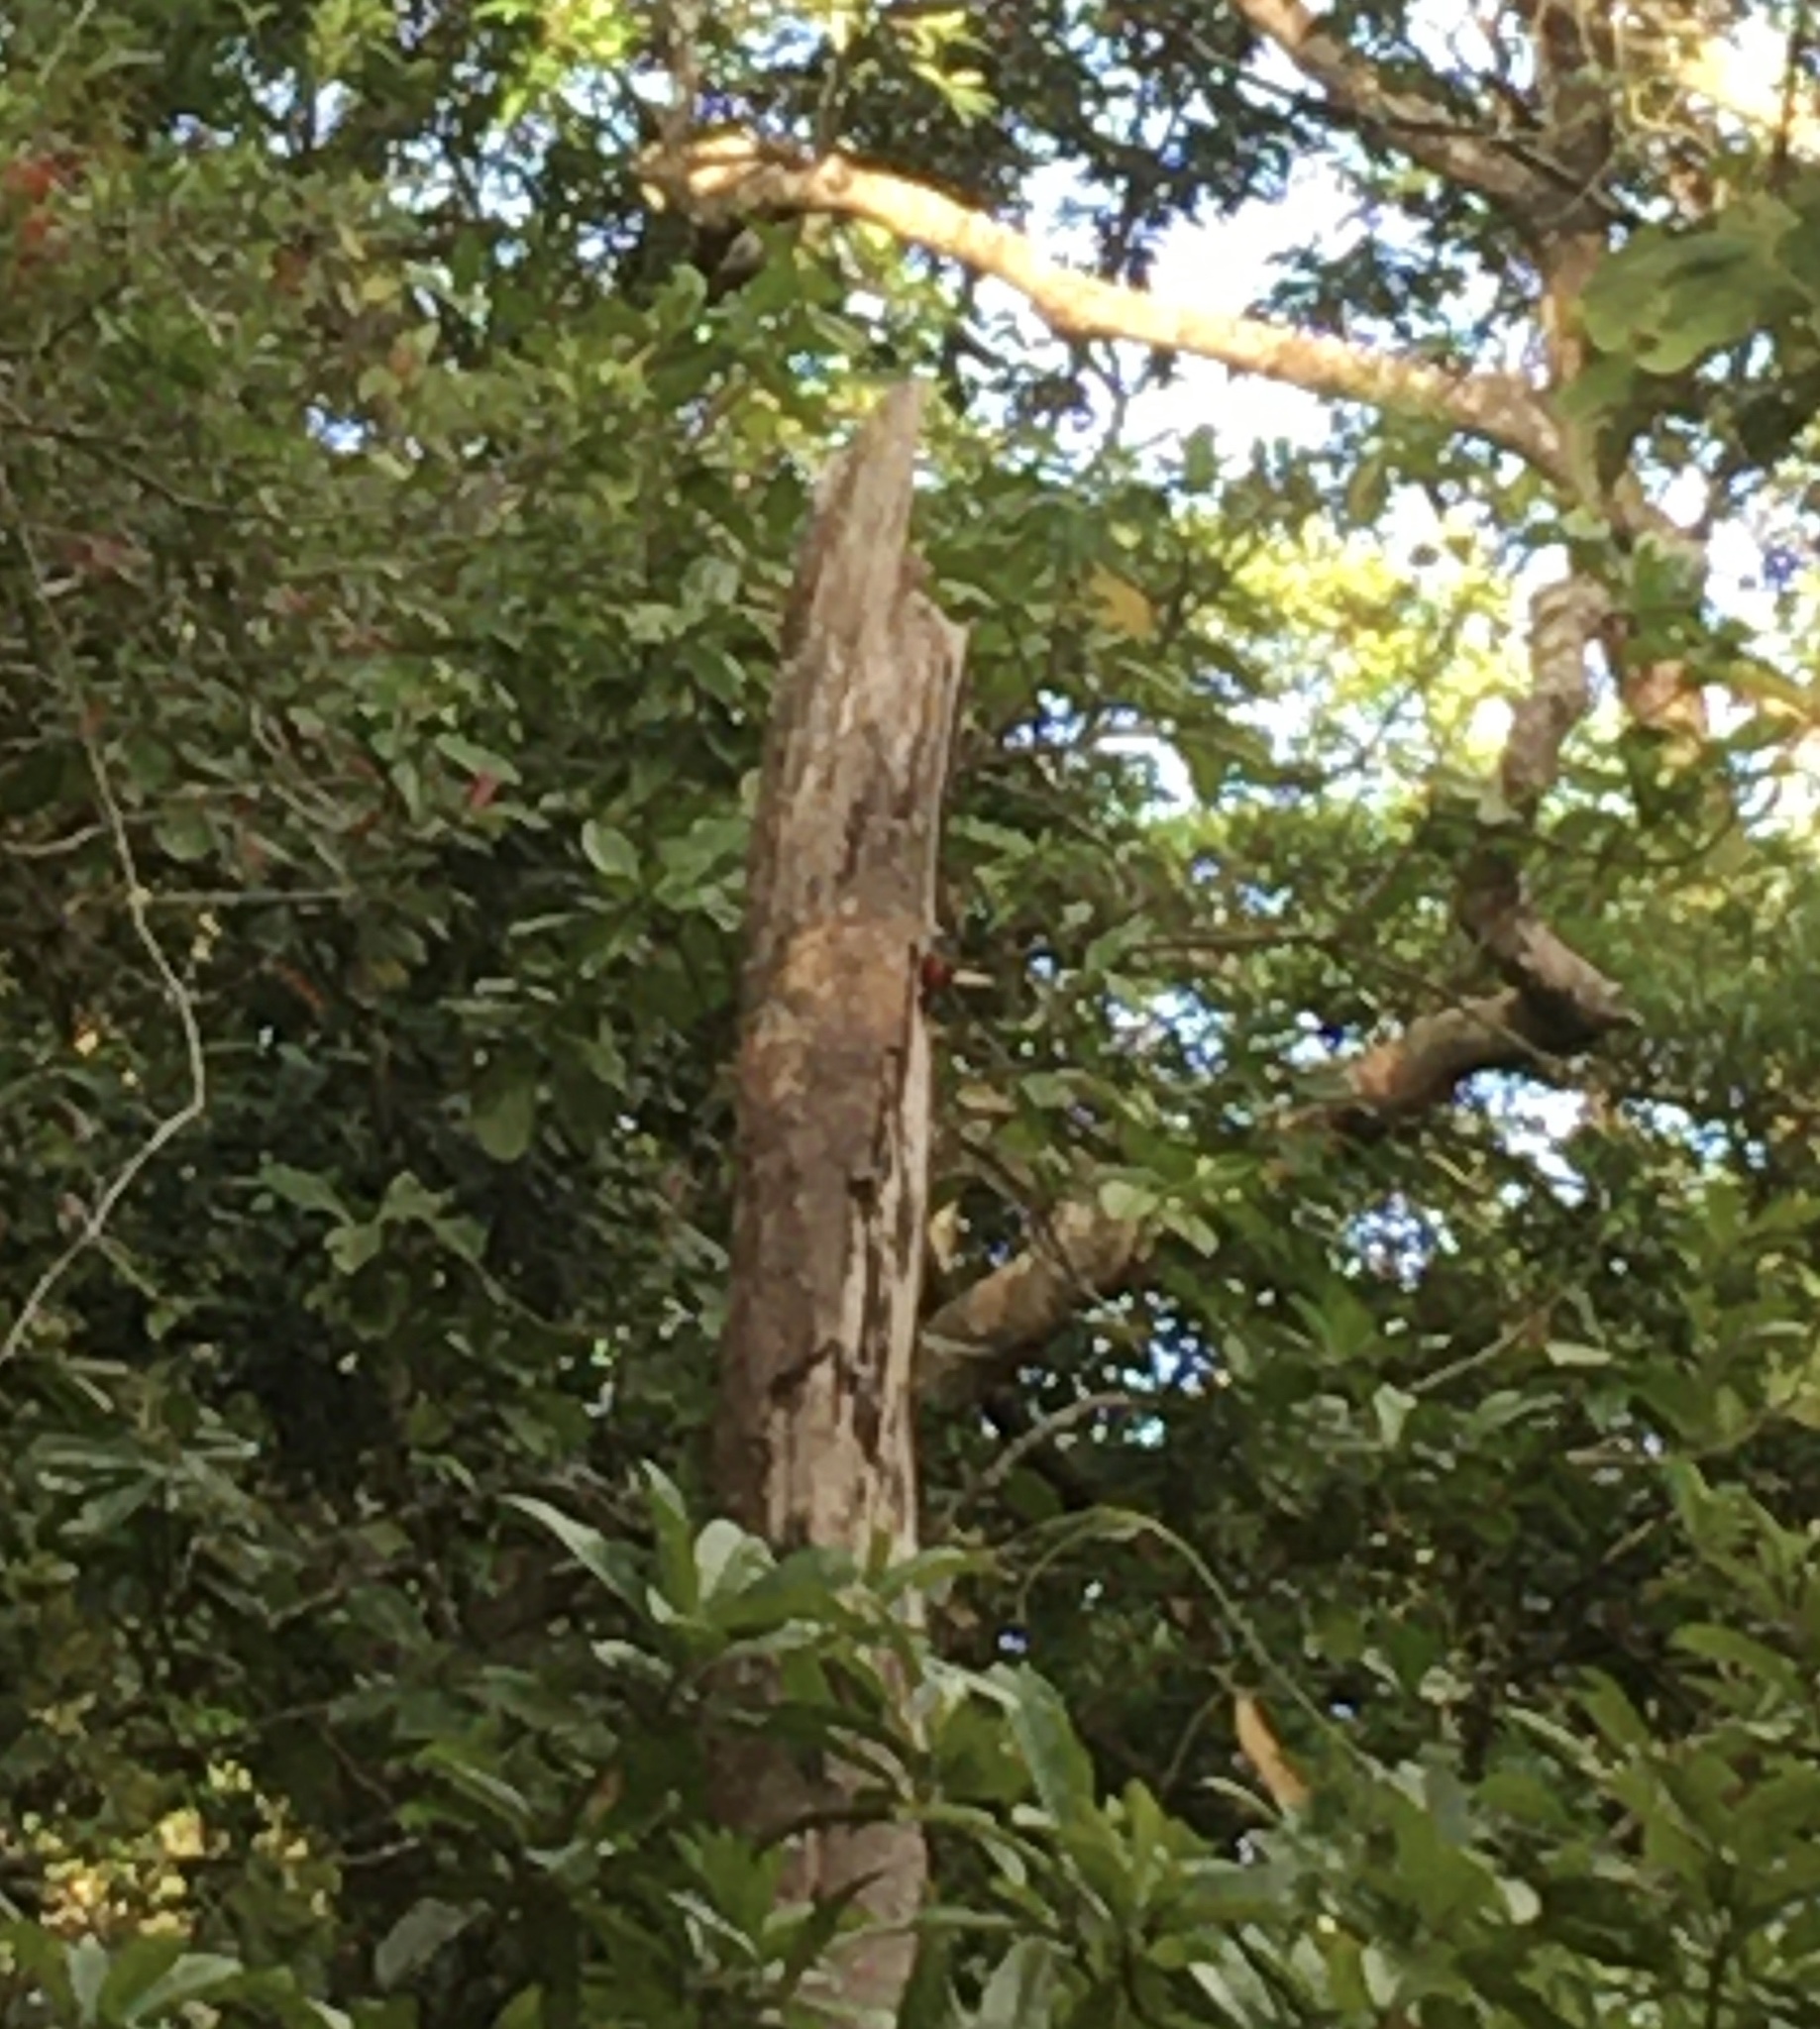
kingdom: Animalia
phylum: Chordata
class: Aves
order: Piciformes
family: Picidae
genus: Campephilus
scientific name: Campephilus guatemalensis
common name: Pale-billed woodpecker
